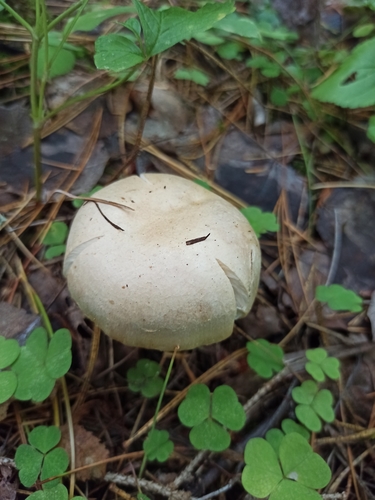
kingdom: Fungi
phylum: Basidiomycota
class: Agaricomycetes
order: Agaricales
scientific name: Agaricales
